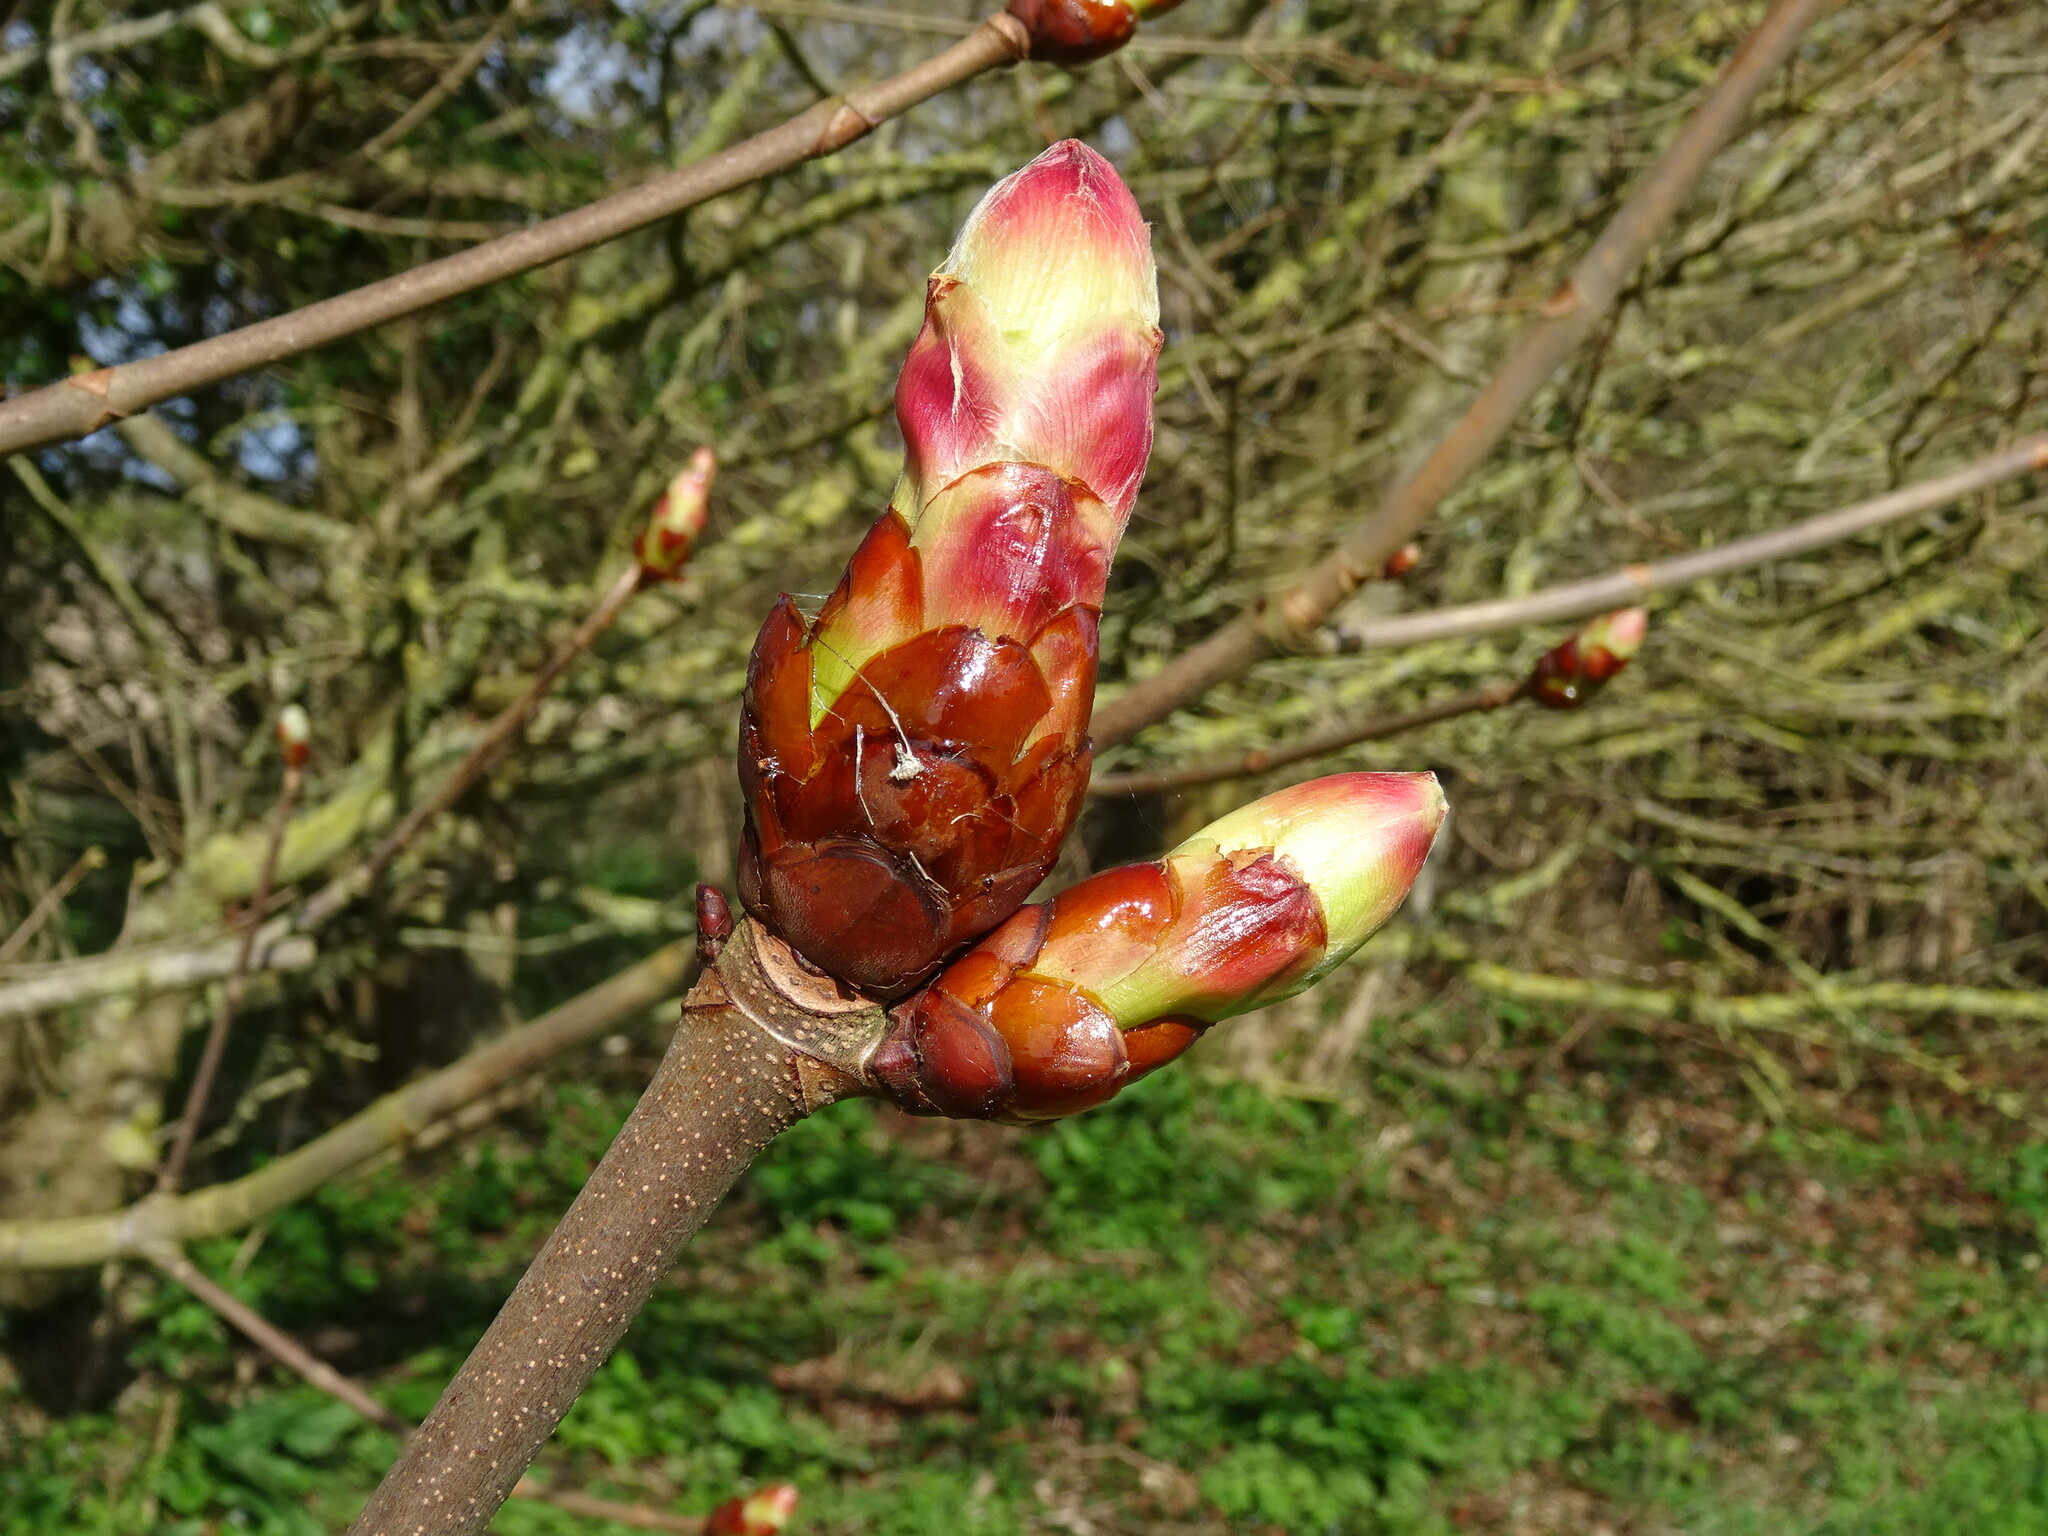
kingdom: Plantae
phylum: Tracheophyta
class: Magnoliopsida
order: Sapindales
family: Sapindaceae
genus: Aesculus
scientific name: Aesculus hippocastanum
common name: Horse-chestnut
